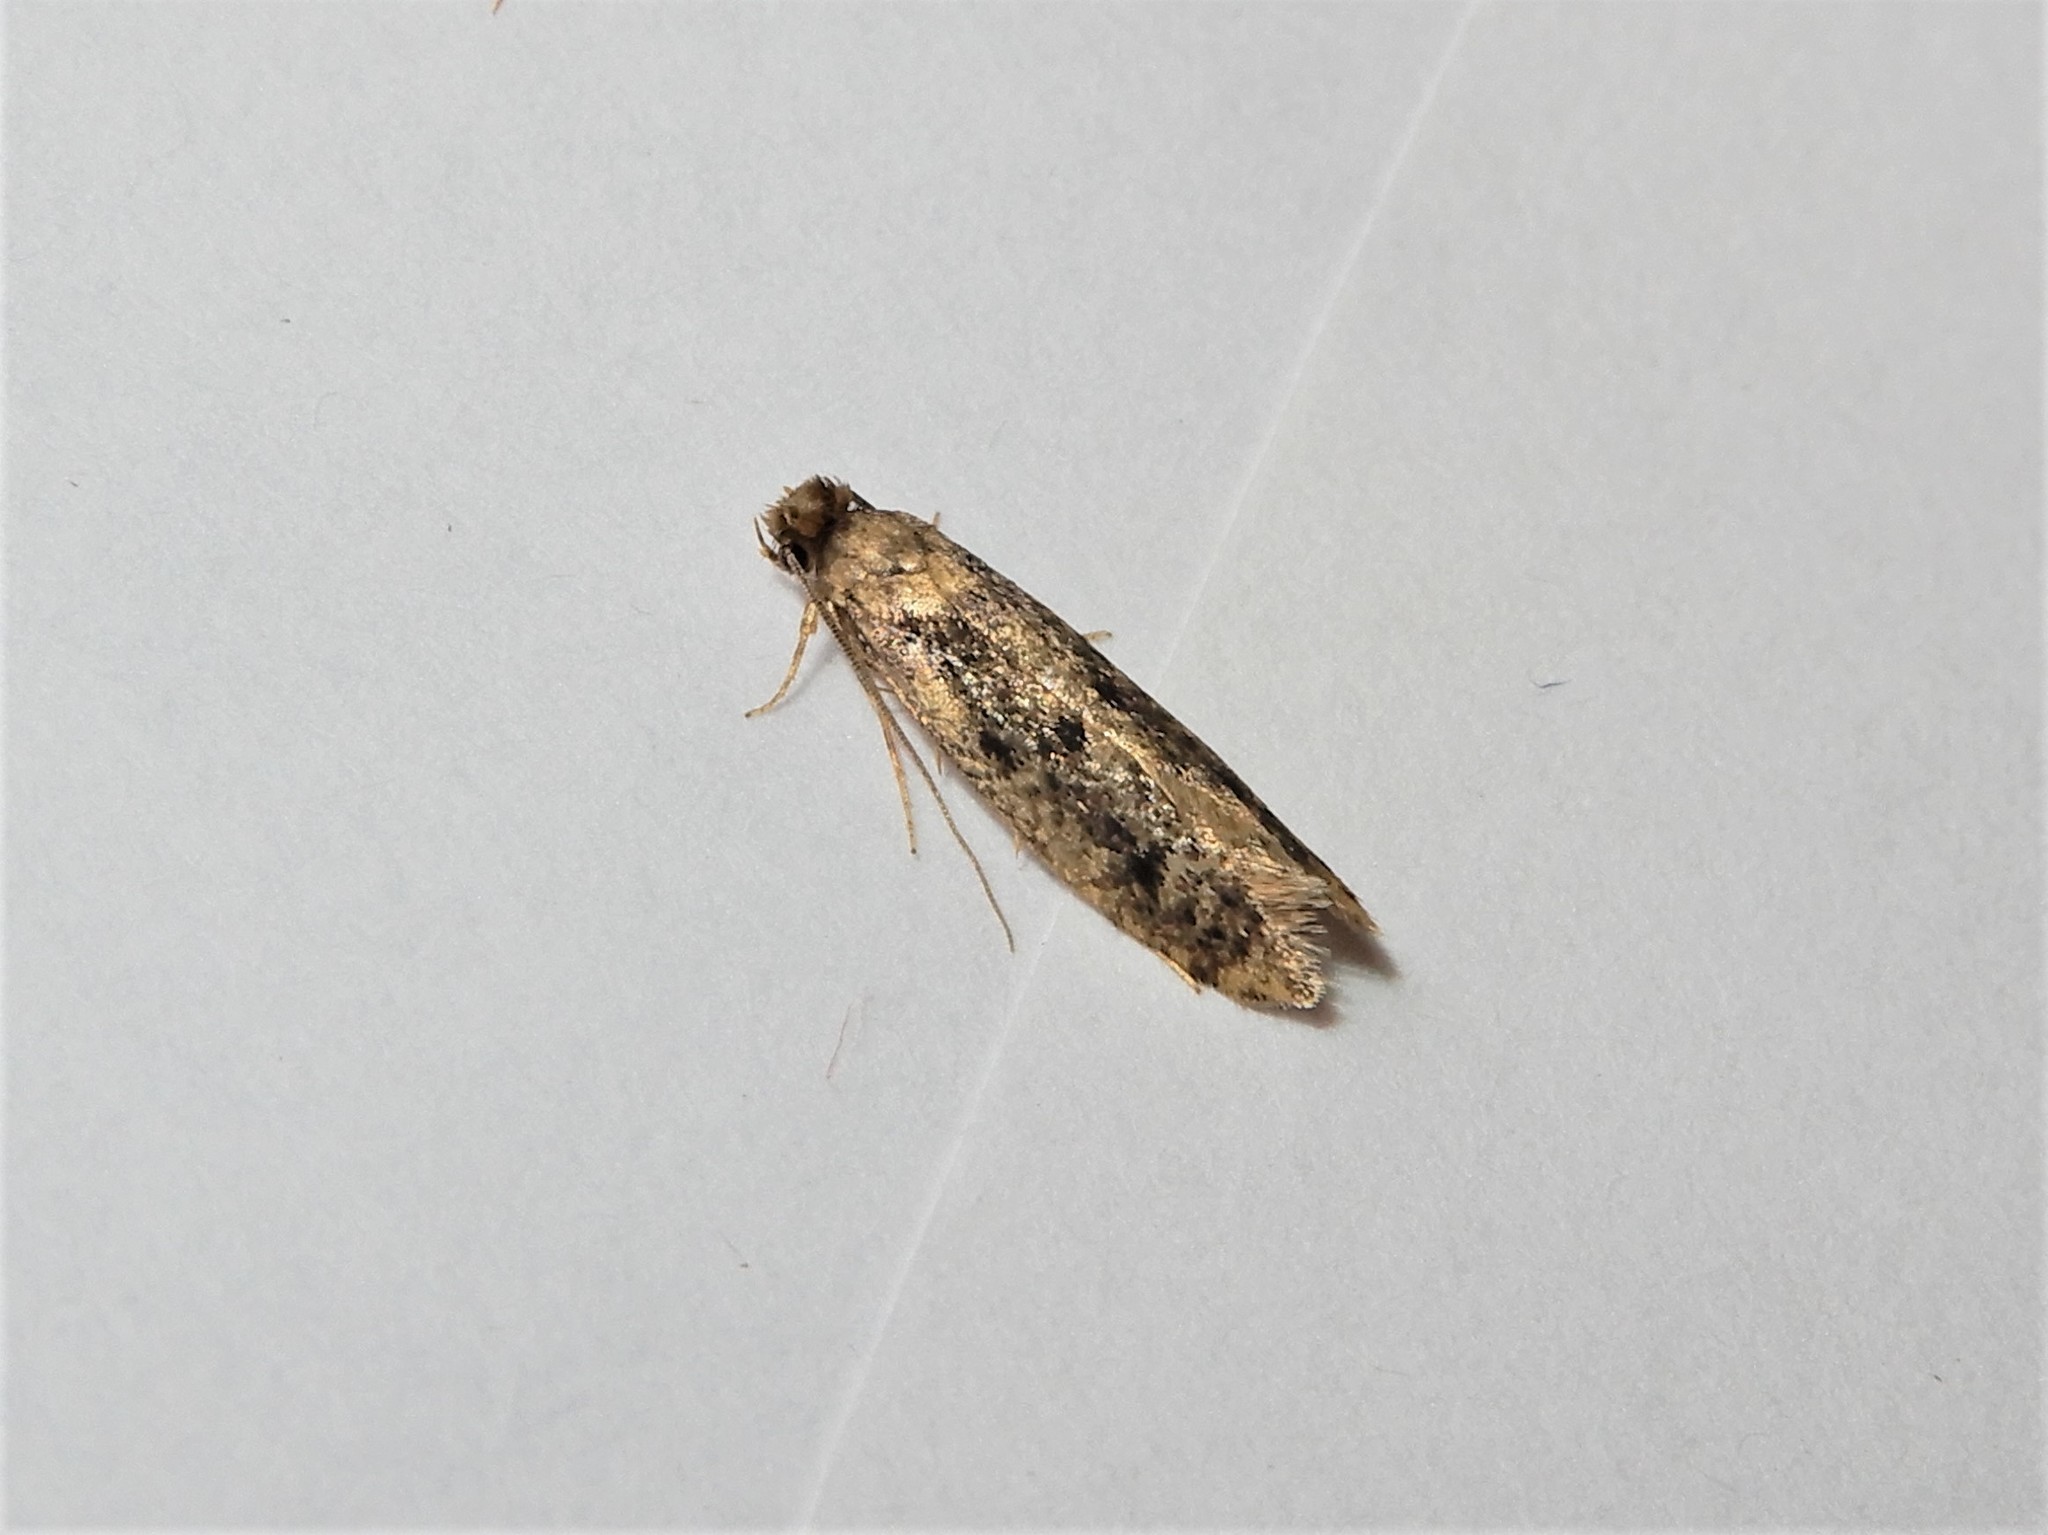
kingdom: Animalia
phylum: Arthropoda
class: Insecta
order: Lepidoptera
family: Tineidae
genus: Niditinea
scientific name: Niditinea fuscella
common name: Brown-dotted clothes moth
